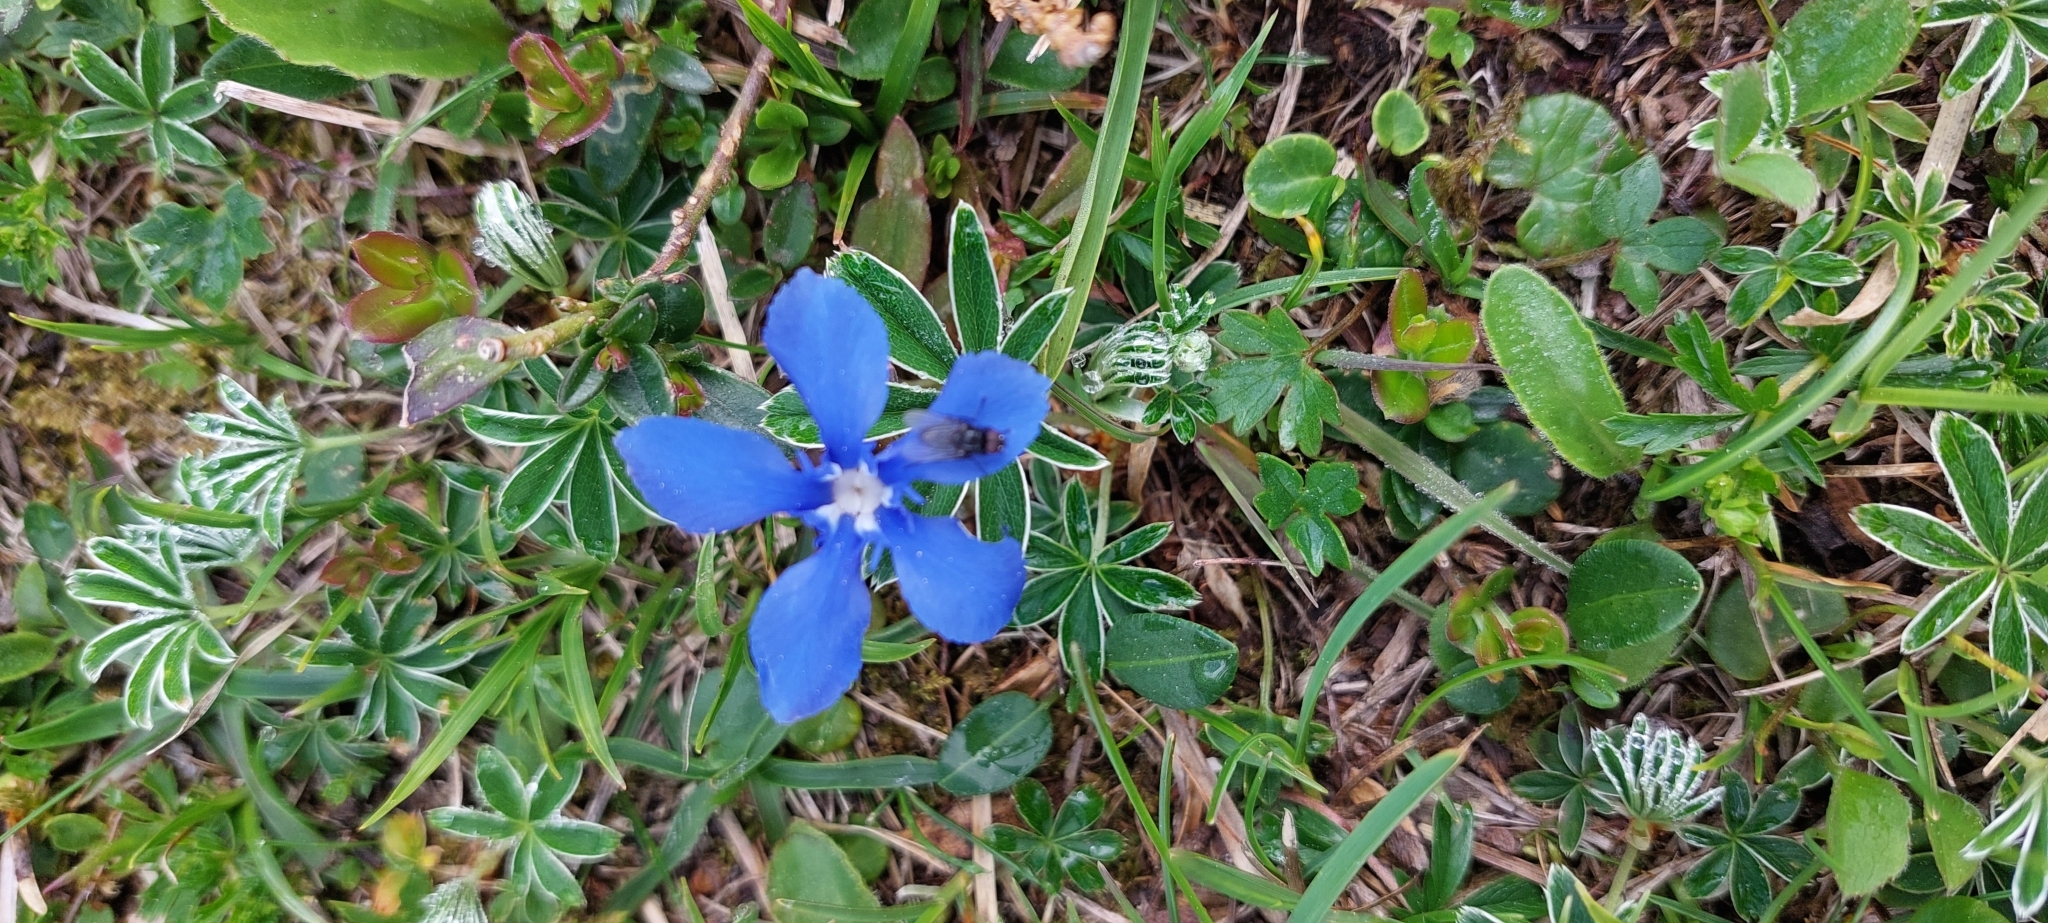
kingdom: Plantae
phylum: Tracheophyta
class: Magnoliopsida
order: Gentianales
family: Gentianaceae
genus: Gentiana
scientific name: Gentiana verna
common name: Spring gentian
